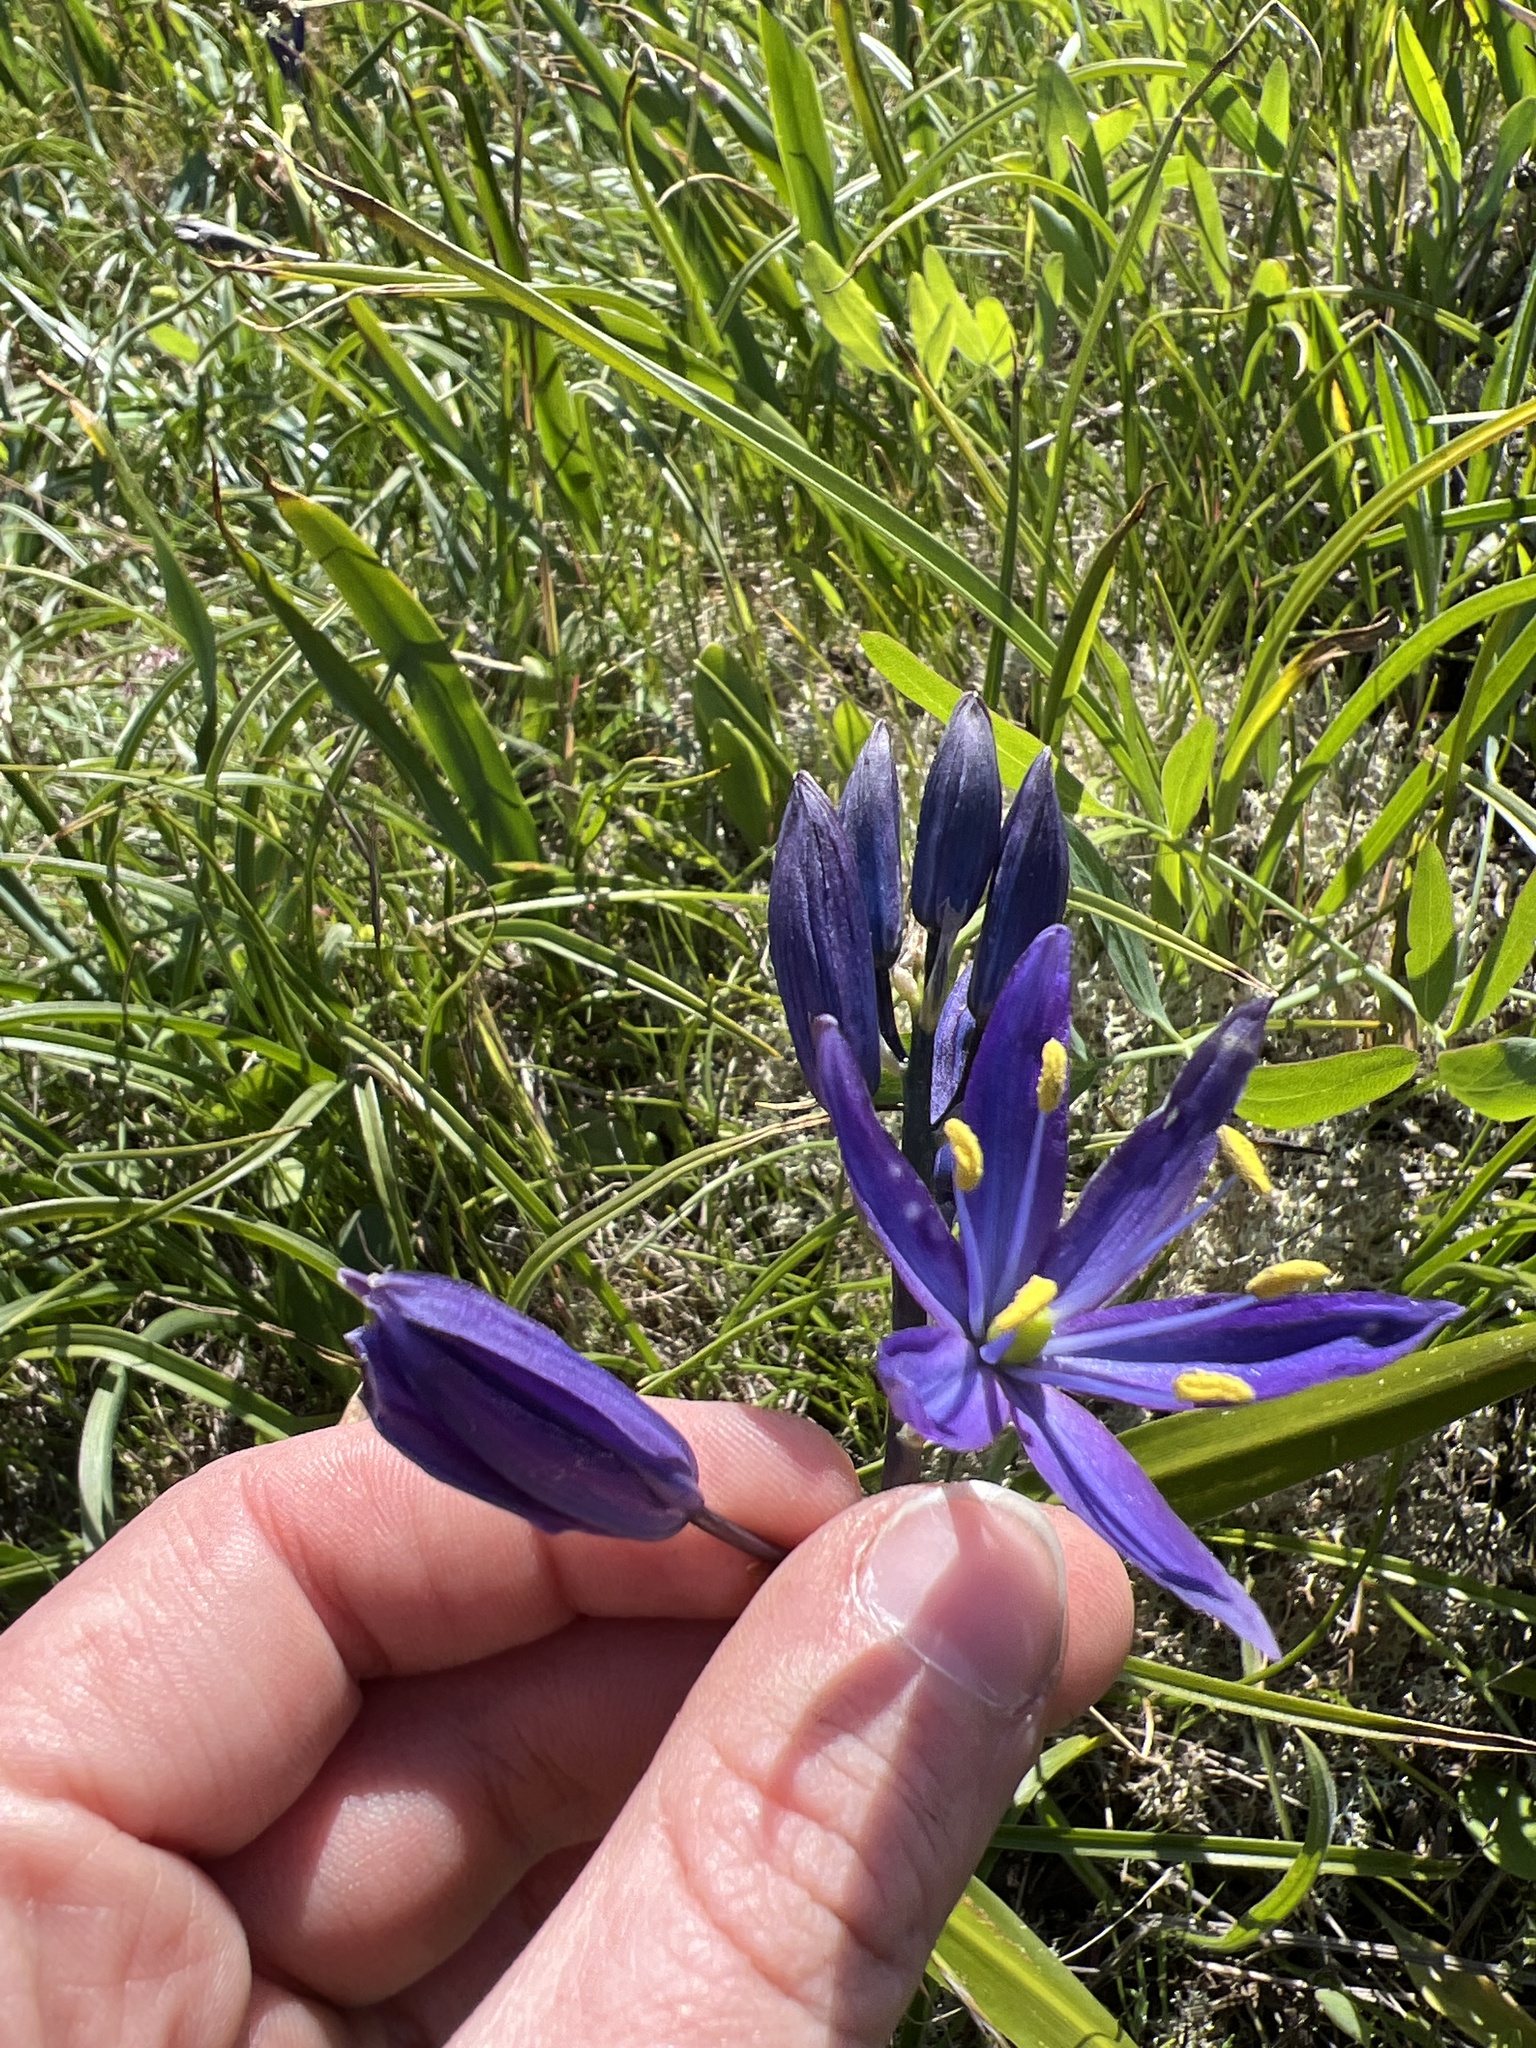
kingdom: Plantae
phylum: Tracheophyta
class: Liliopsida
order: Asparagales
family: Asparagaceae
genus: Camassia
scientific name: Camassia quamash
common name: Common camas
